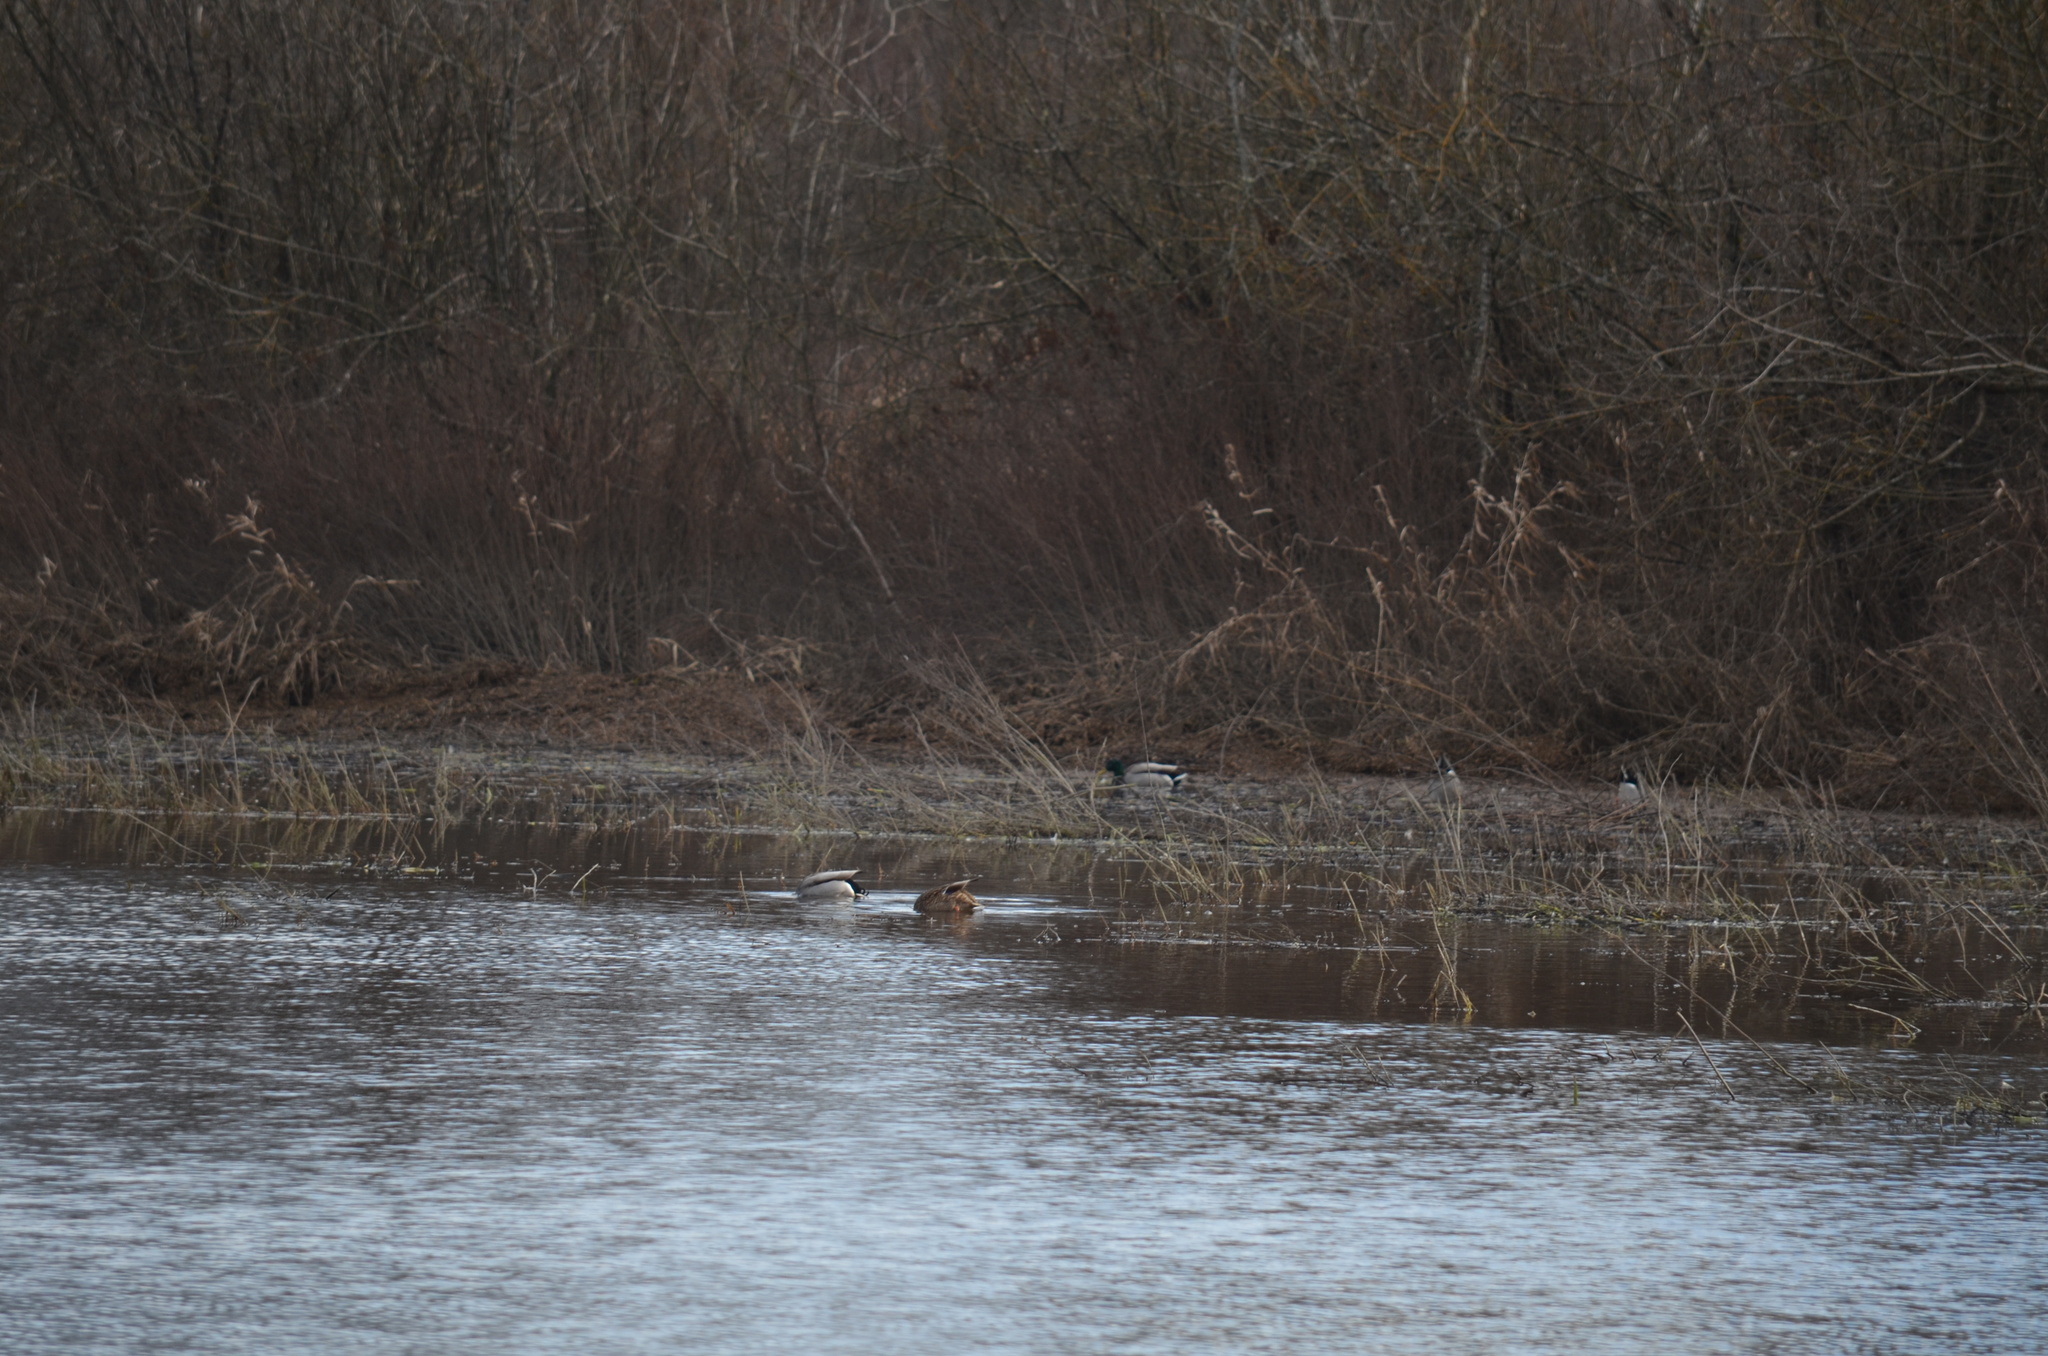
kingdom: Animalia
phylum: Chordata
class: Aves
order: Anseriformes
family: Anatidae
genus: Anas
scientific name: Anas platyrhynchos
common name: Mallard
